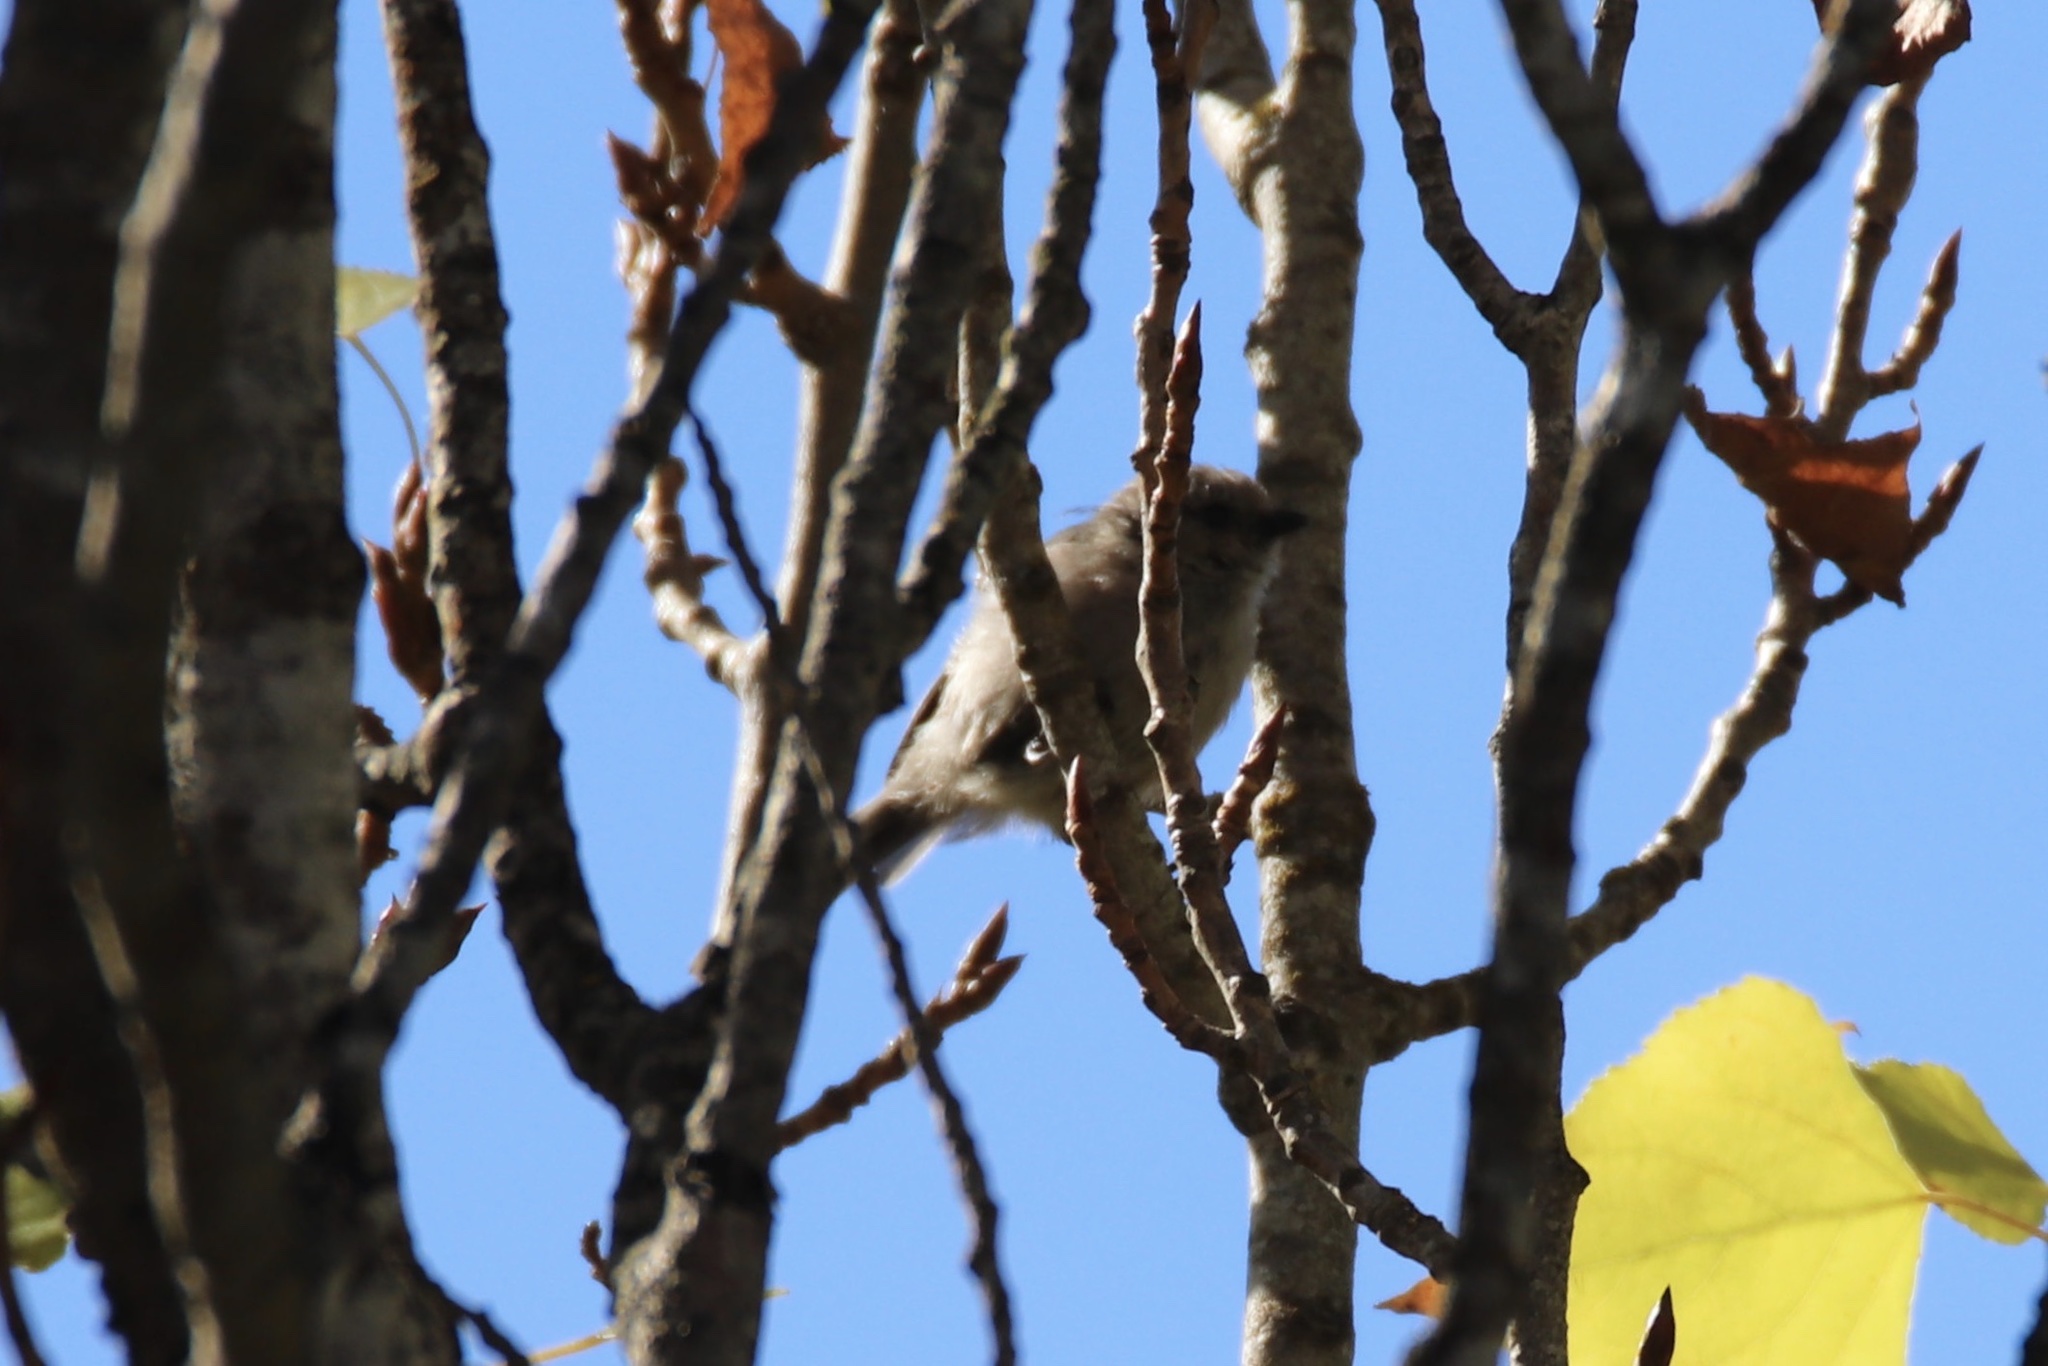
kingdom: Animalia
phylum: Chordata
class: Aves
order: Passeriformes
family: Aegithalidae
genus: Psaltriparus
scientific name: Psaltriparus minimus
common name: American bushtit
